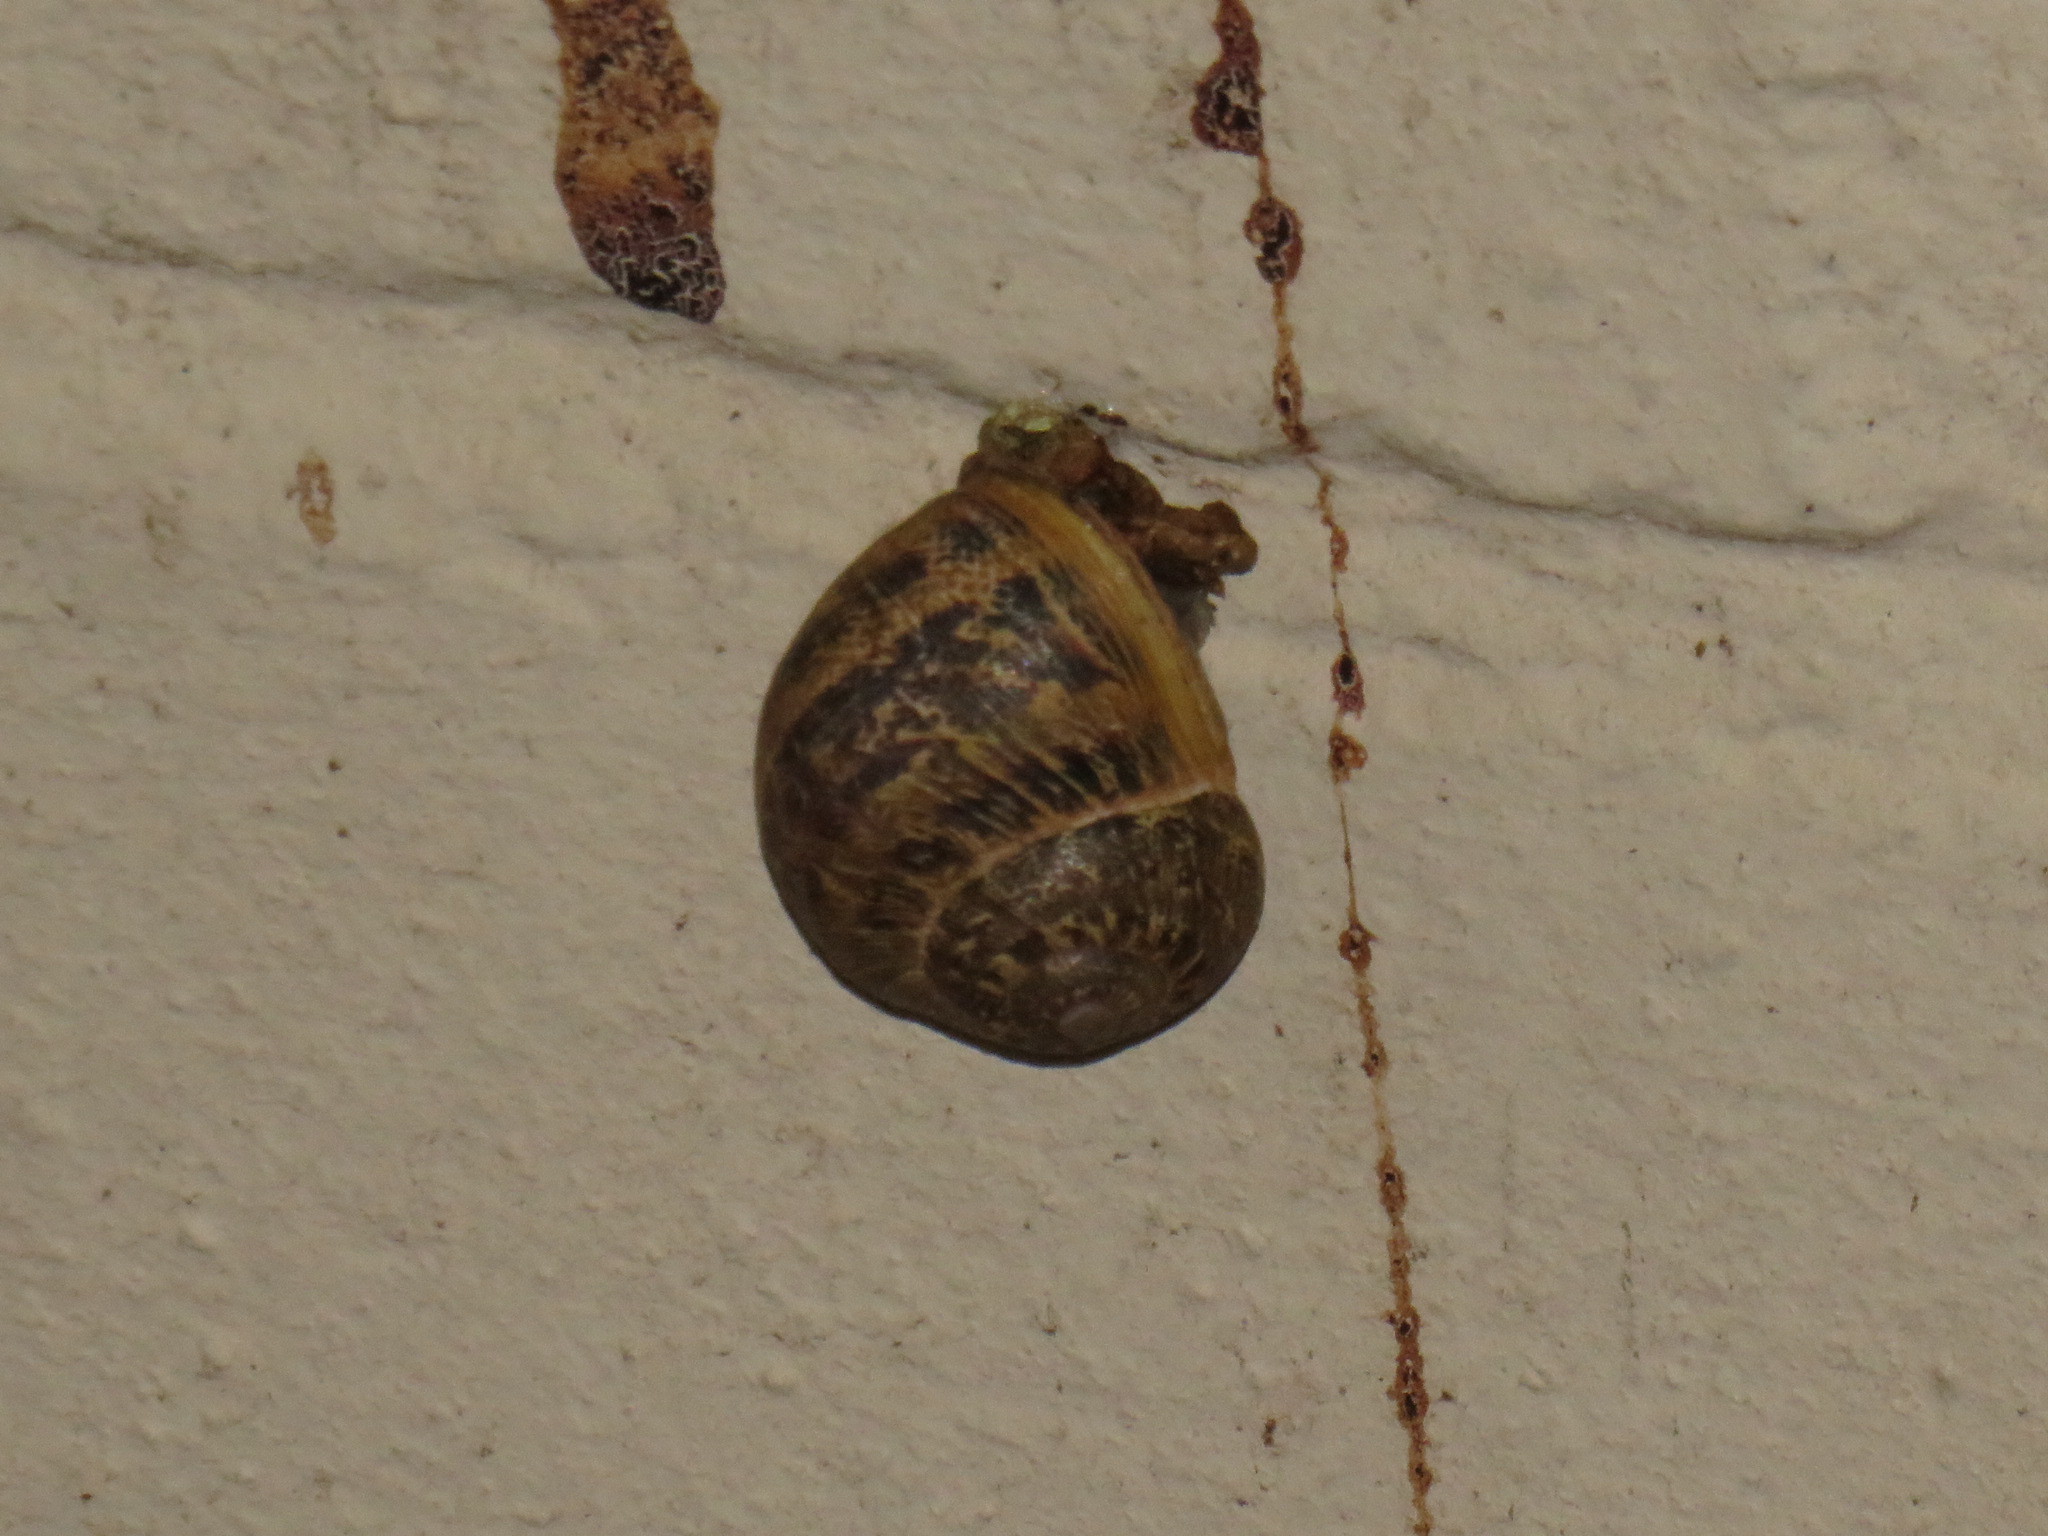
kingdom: Animalia
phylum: Mollusca
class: Gastropoda
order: Stylommatophora
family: Helicidae
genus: Cornu
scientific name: Cornu aspersum
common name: Brown garden snail
